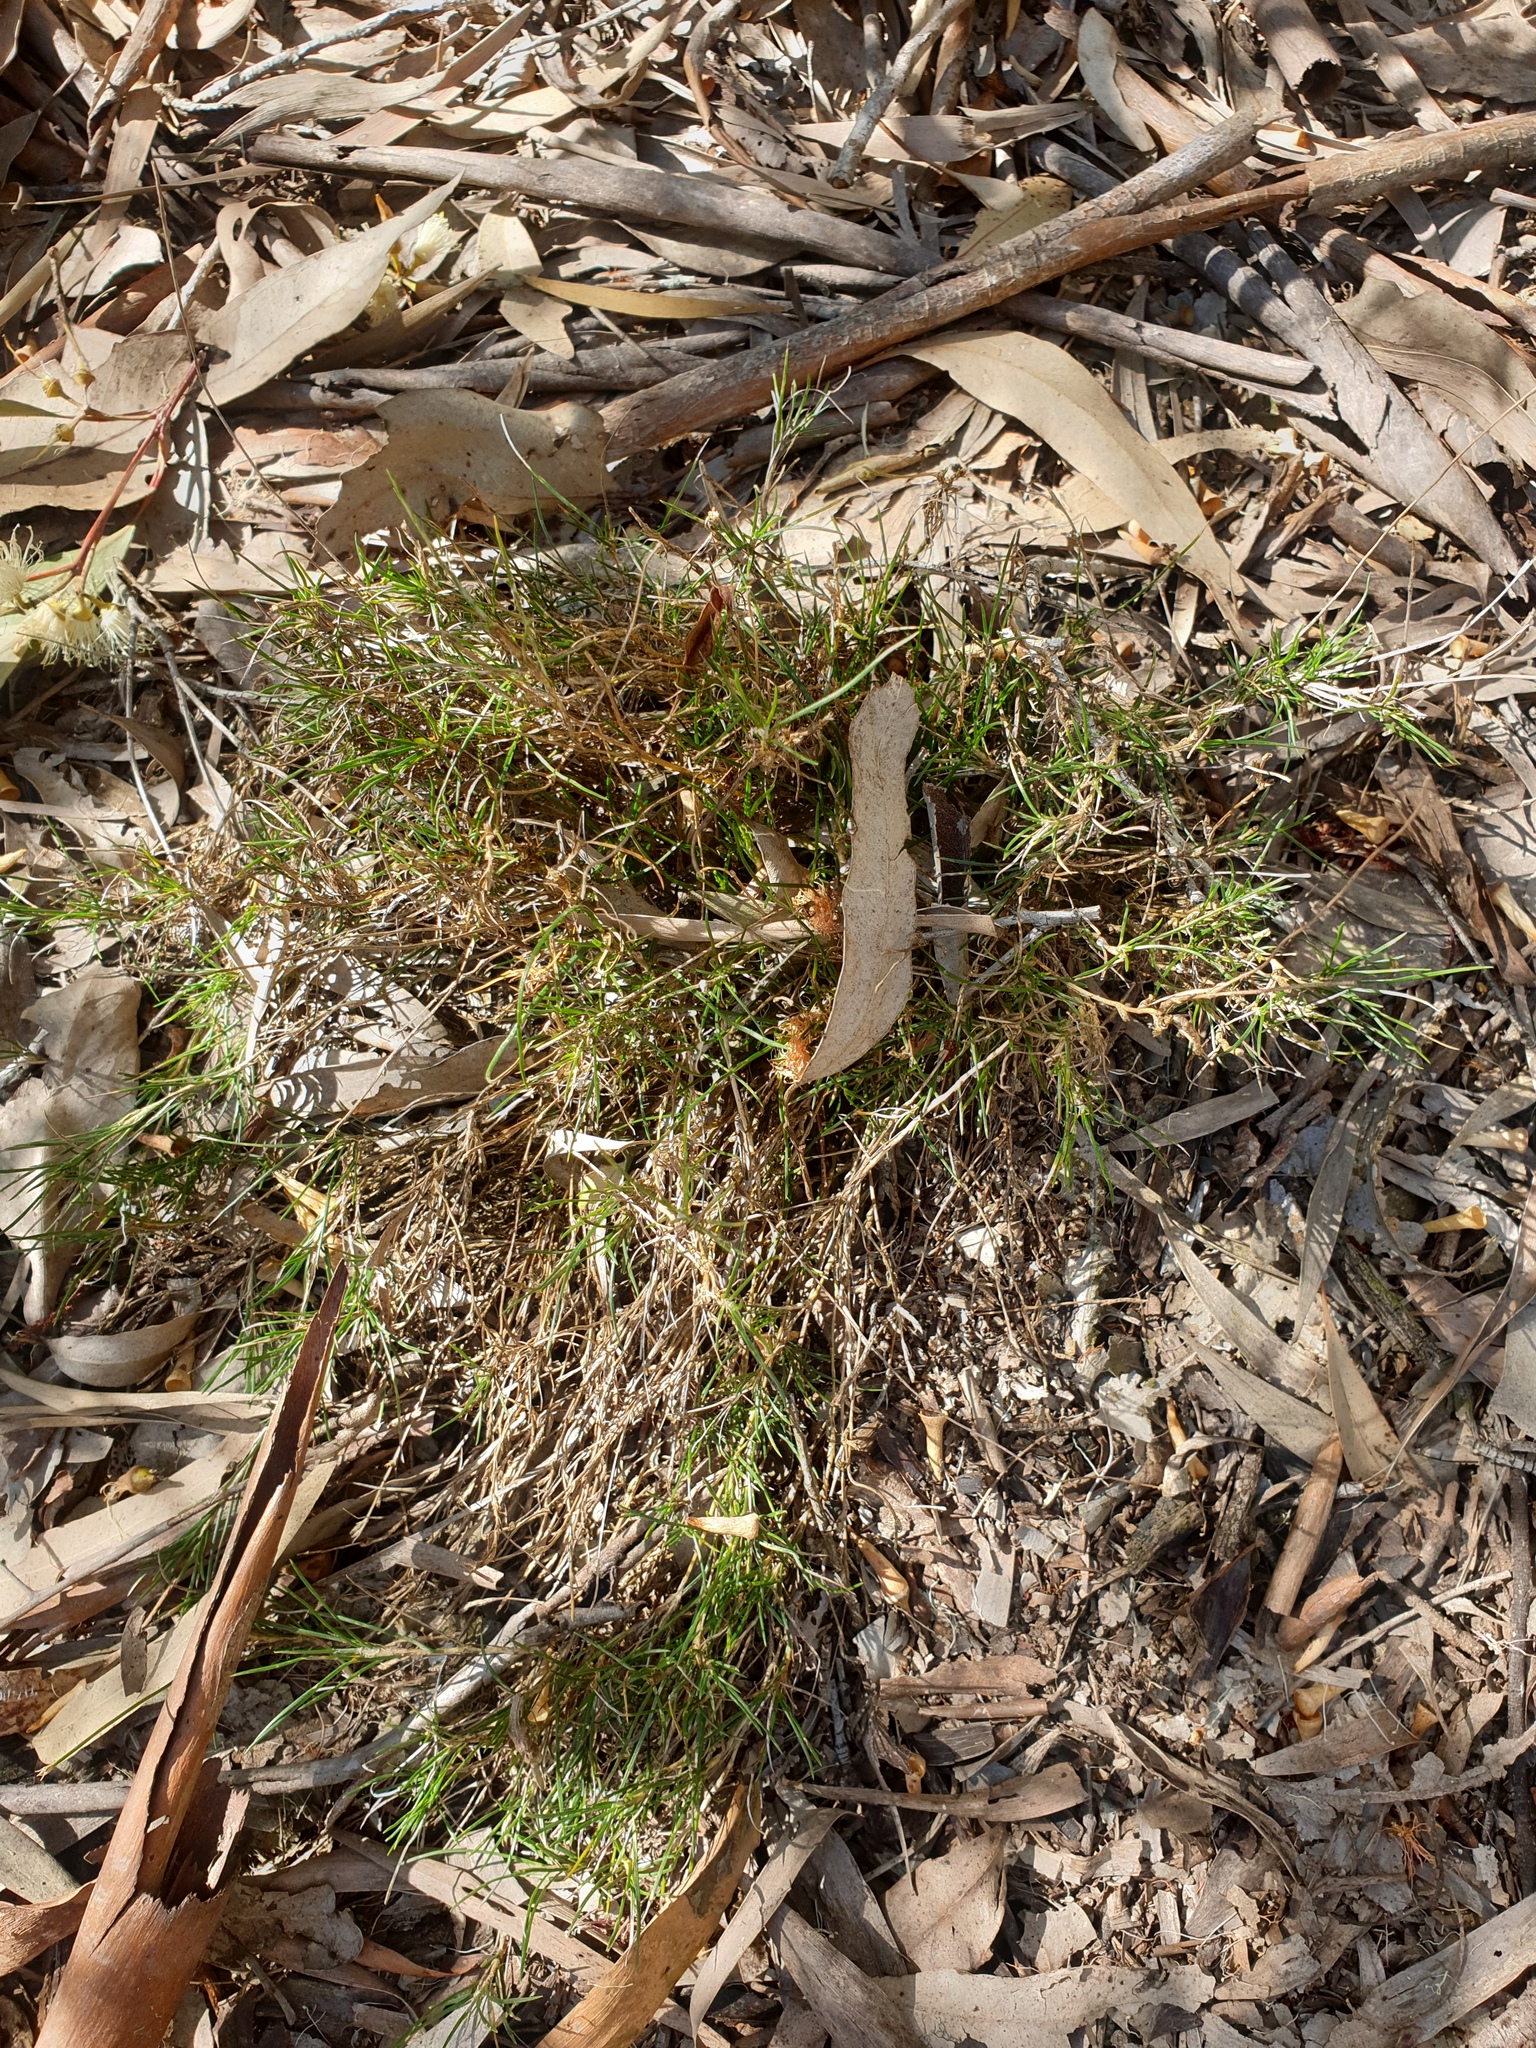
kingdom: Plantae
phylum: Tracheophyta
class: Liliopsida
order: Asparagales
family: Asparagaceae
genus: Laxmannia
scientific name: Laxmannia gracilis
